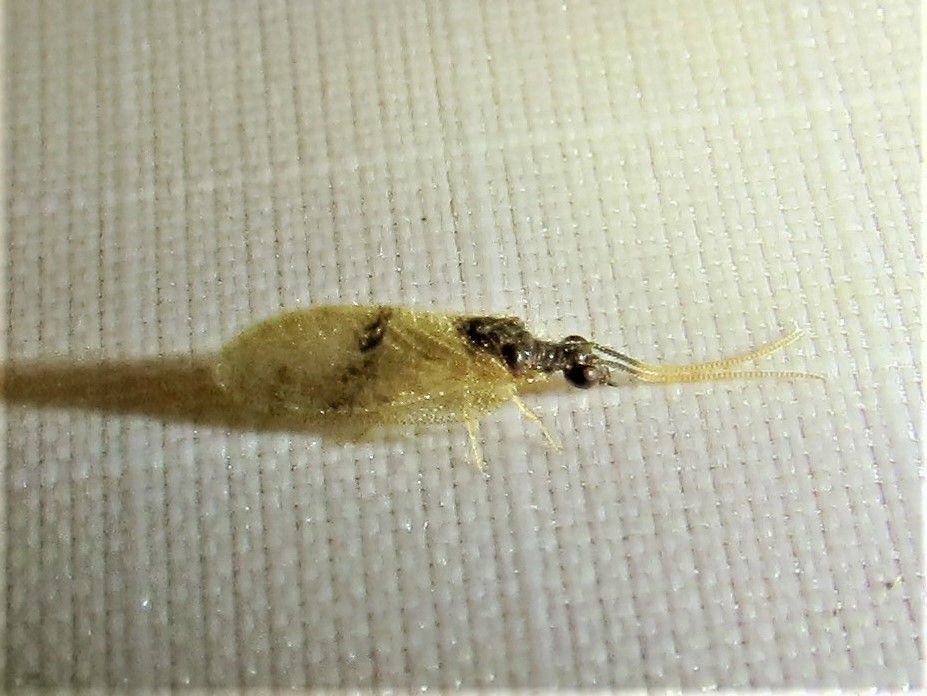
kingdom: Animalia
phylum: Arthropoda
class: Insecta
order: Neuroptera
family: Hemerobiidae
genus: Sympherobius
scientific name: Sympherobius barberi
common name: Brown lacewing
